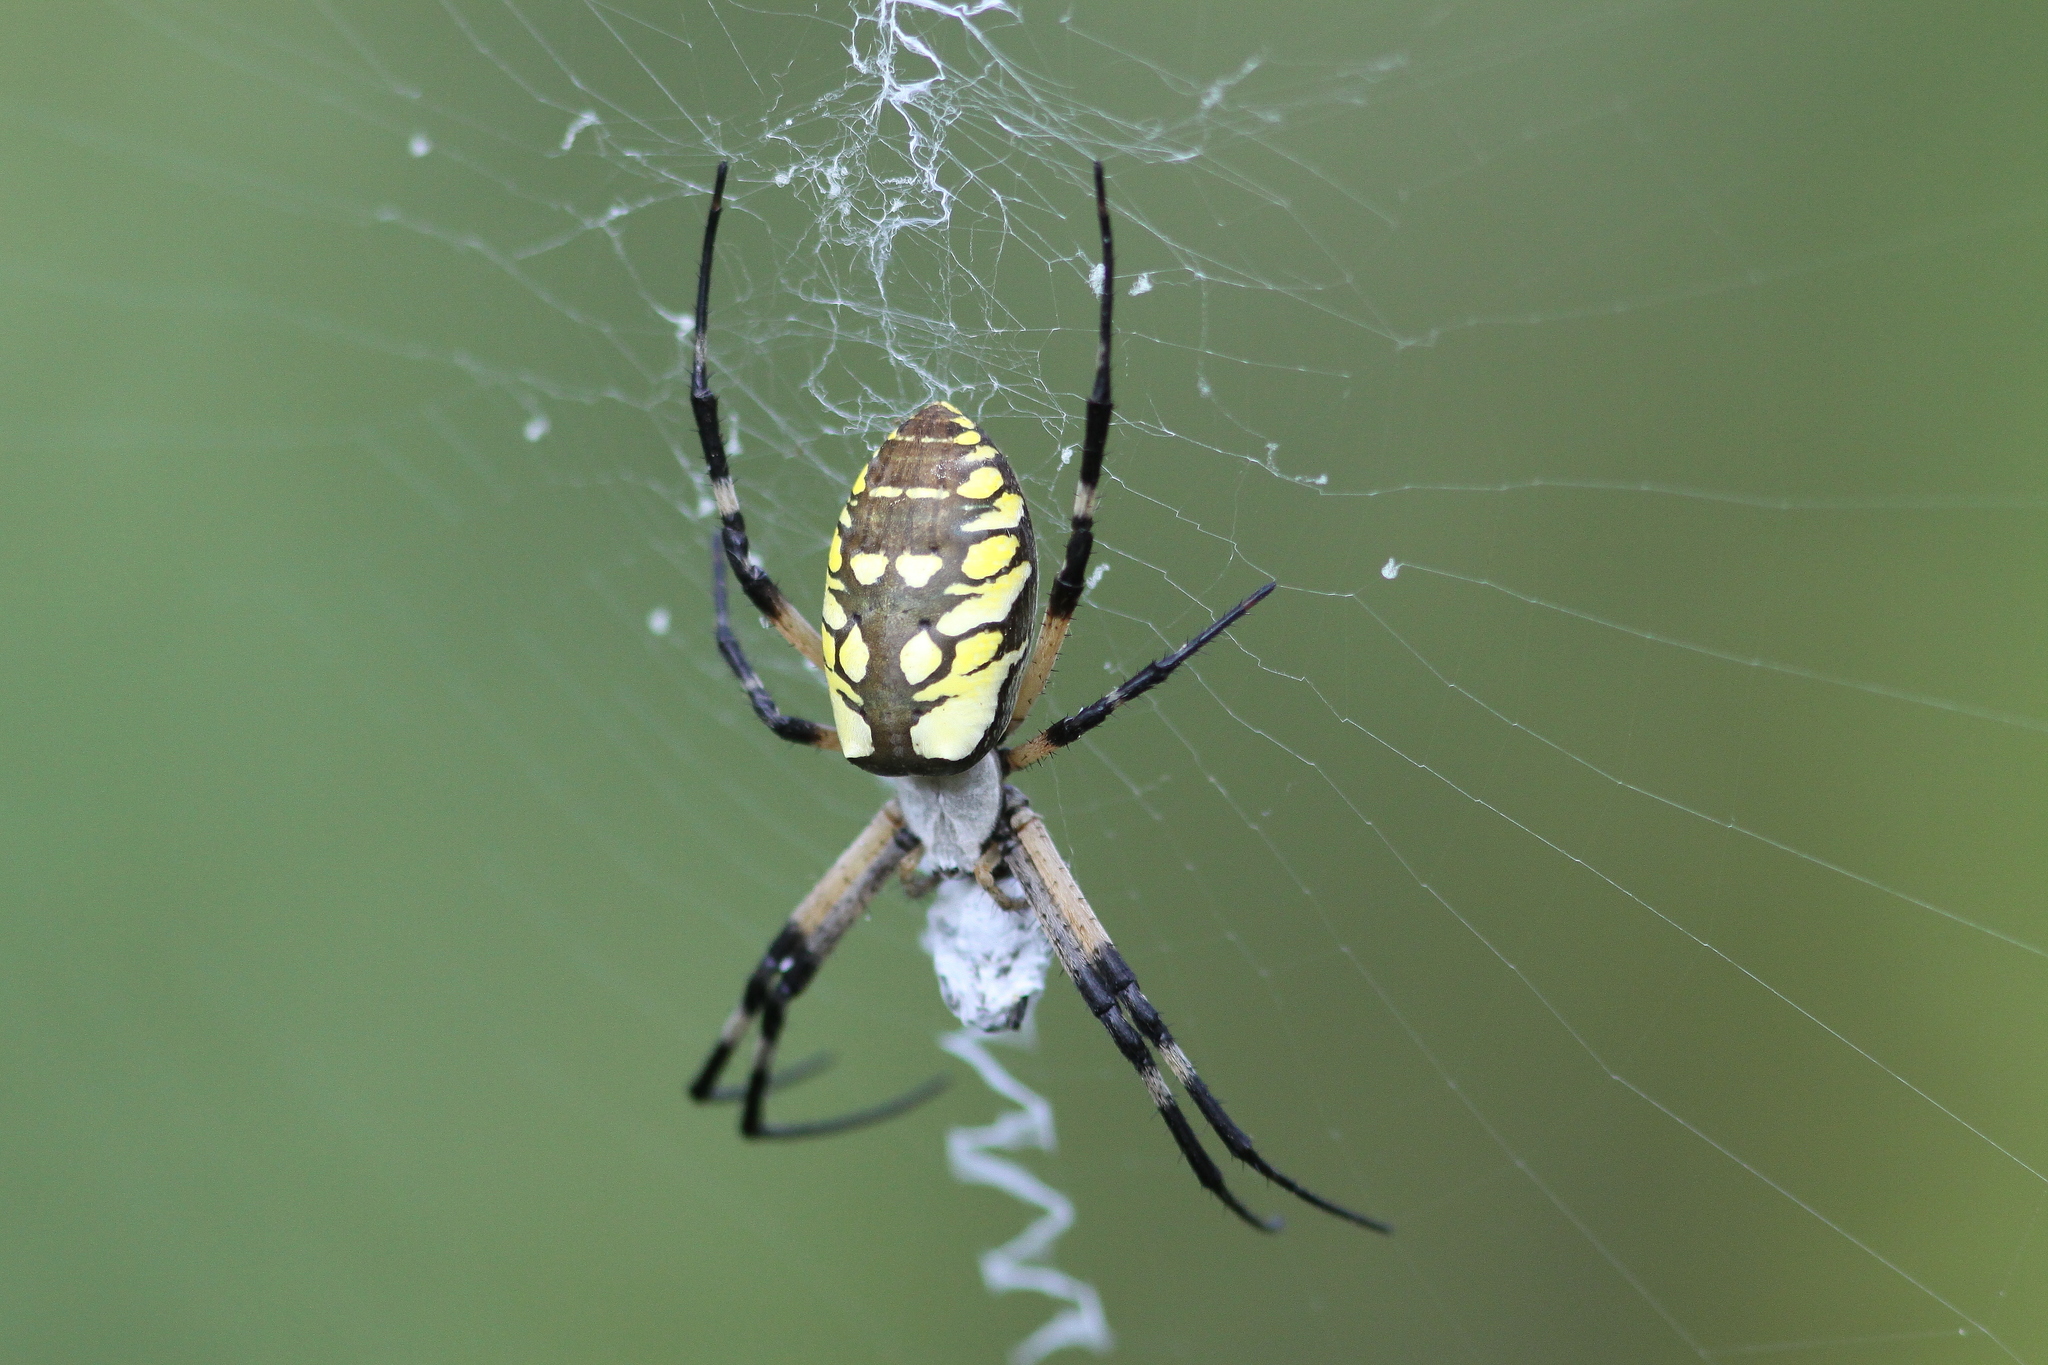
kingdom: Animalia
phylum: Arthropoda
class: Arachnida
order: Araneae
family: Araneidae
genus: Argiope
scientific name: Argiope aurantia
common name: Orb weavers
